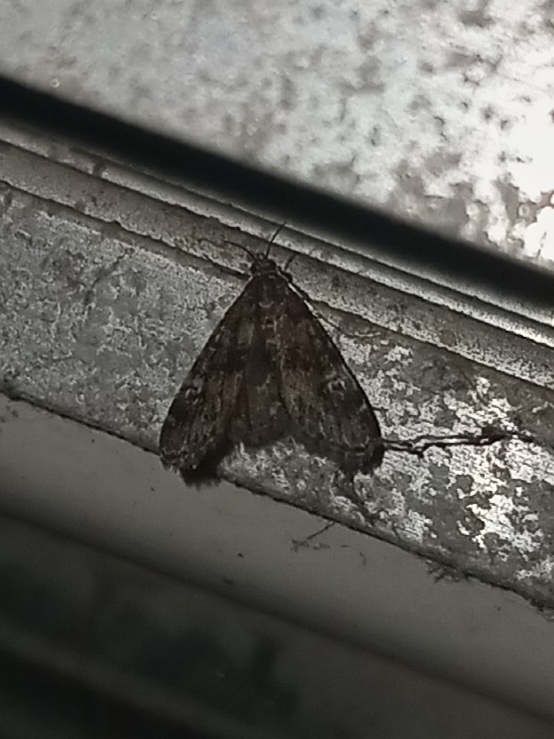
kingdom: Animalia
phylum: Arthropoda
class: Insecta
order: Lepidoptera
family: Crambidae
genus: Elophila
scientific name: Elophila obliteralis
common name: Waterlily leafcutter moth
